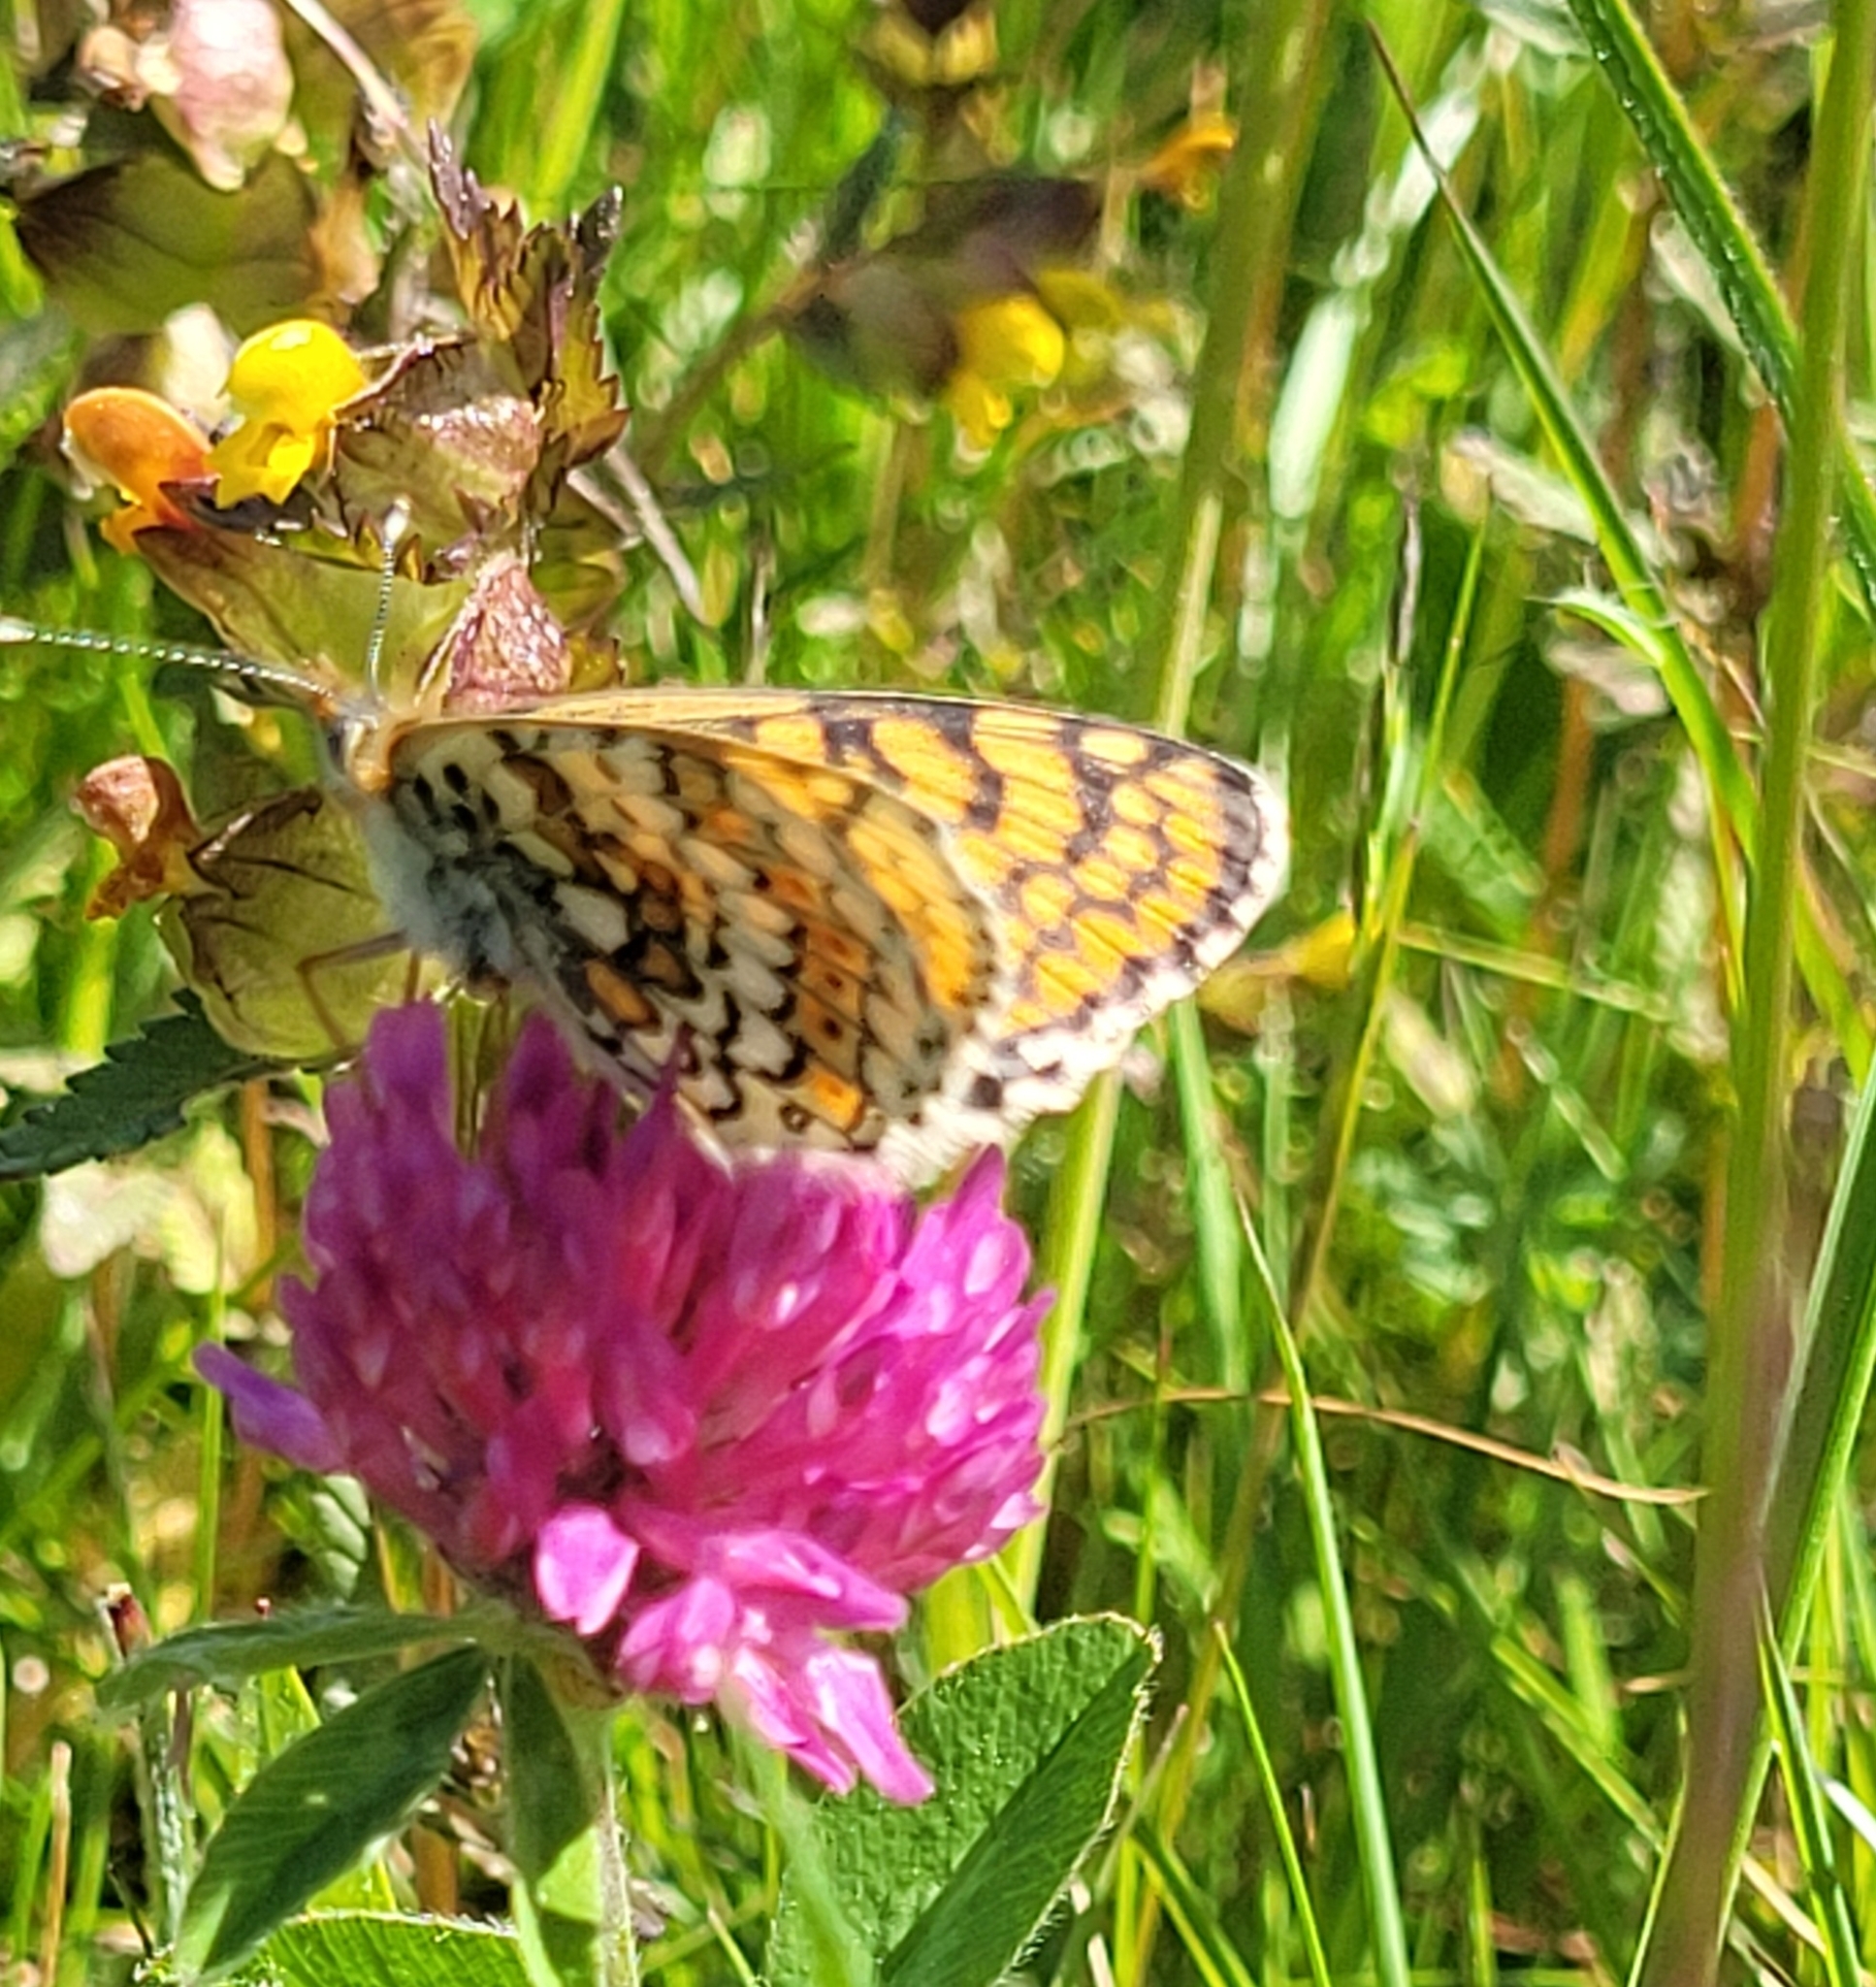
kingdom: Animalia
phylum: Arthropoda
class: Insecta
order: Lepidoptera
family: Nymphalidae
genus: Melitaea
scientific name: Melitaea cinxia
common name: Glanville fritillary
